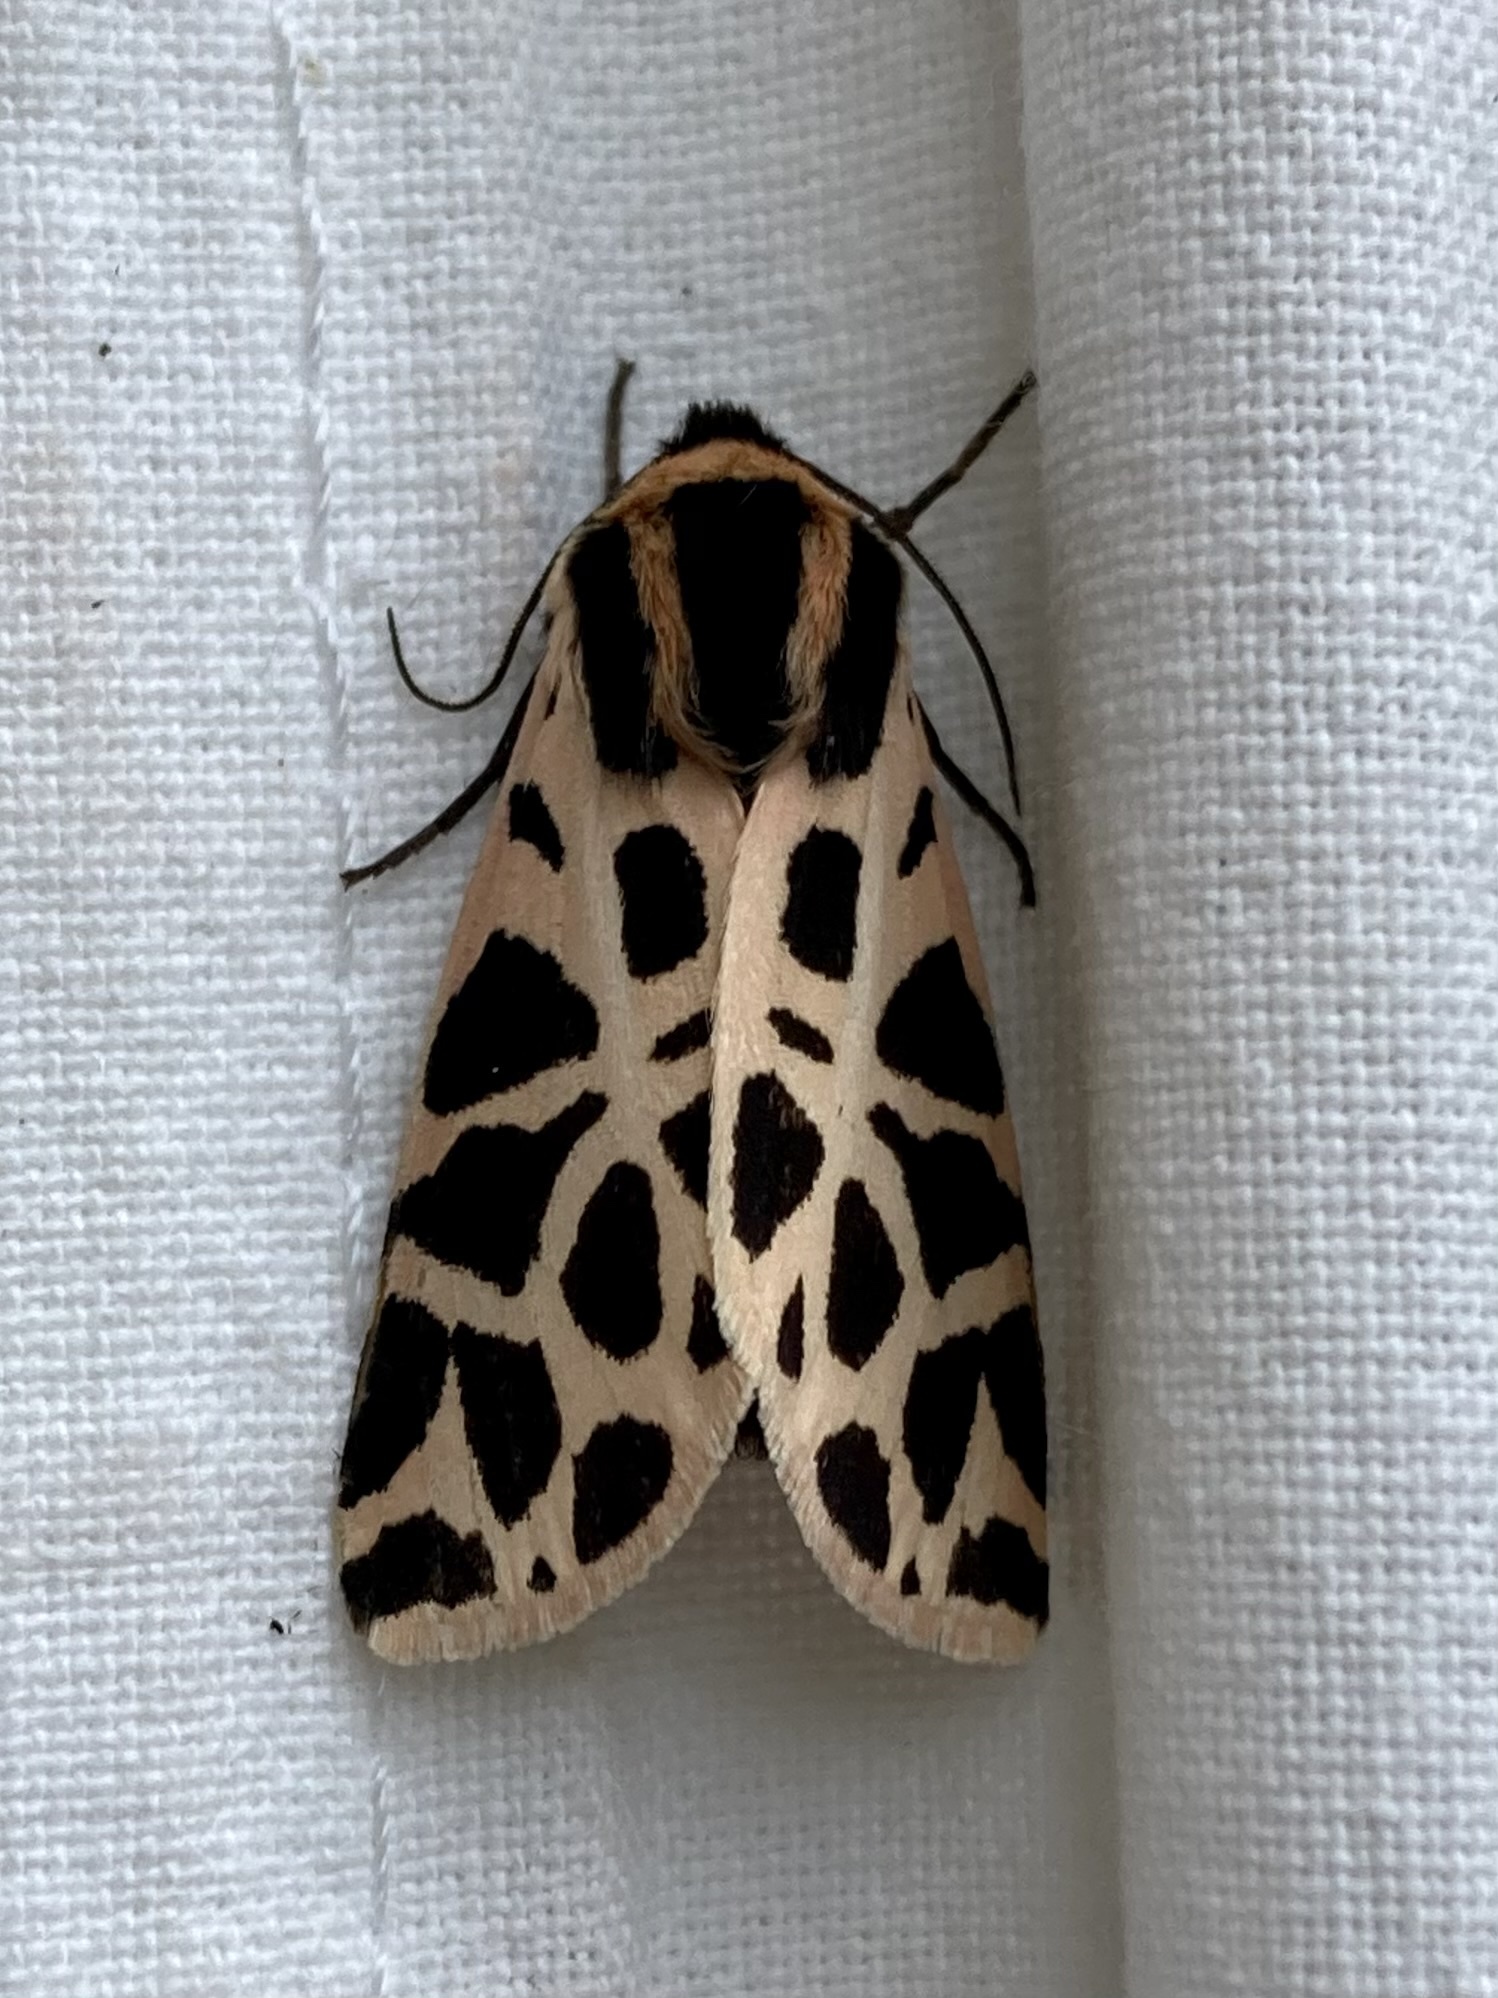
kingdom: Animalia
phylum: Arthropoda
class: Insecta
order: Lepidoptera
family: Erebidae
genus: Cymbalophora
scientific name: Cymbalophora pudica
